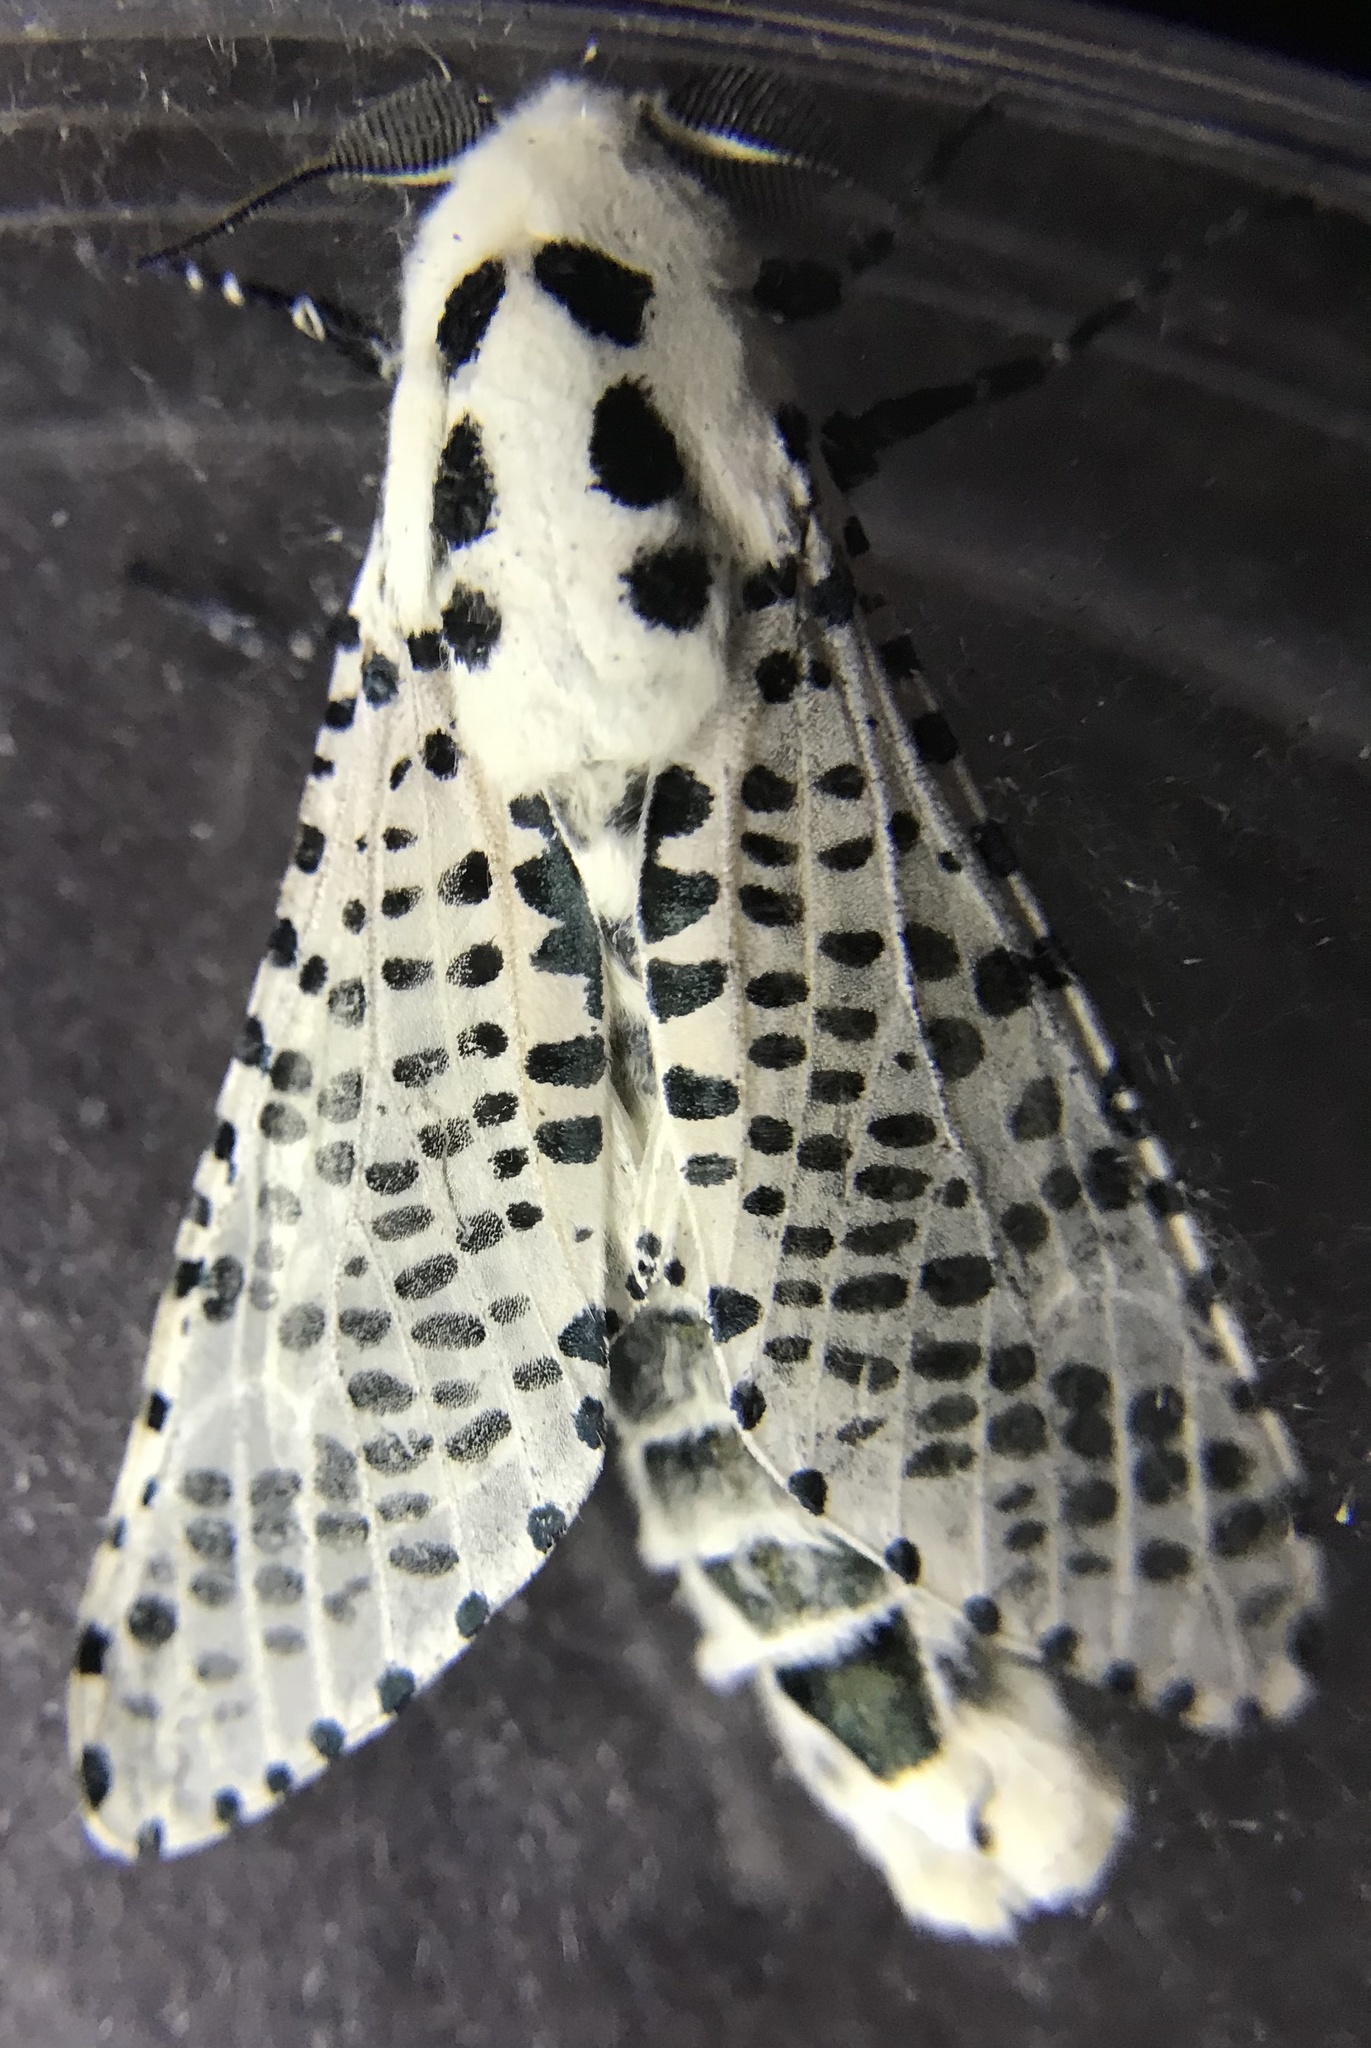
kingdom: Animalia
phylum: Arthropoda
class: Insecta
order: Lepidoptera
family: Cossidae
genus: Zeuzera
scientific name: Zeuzera pyrina
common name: Leopard moth
